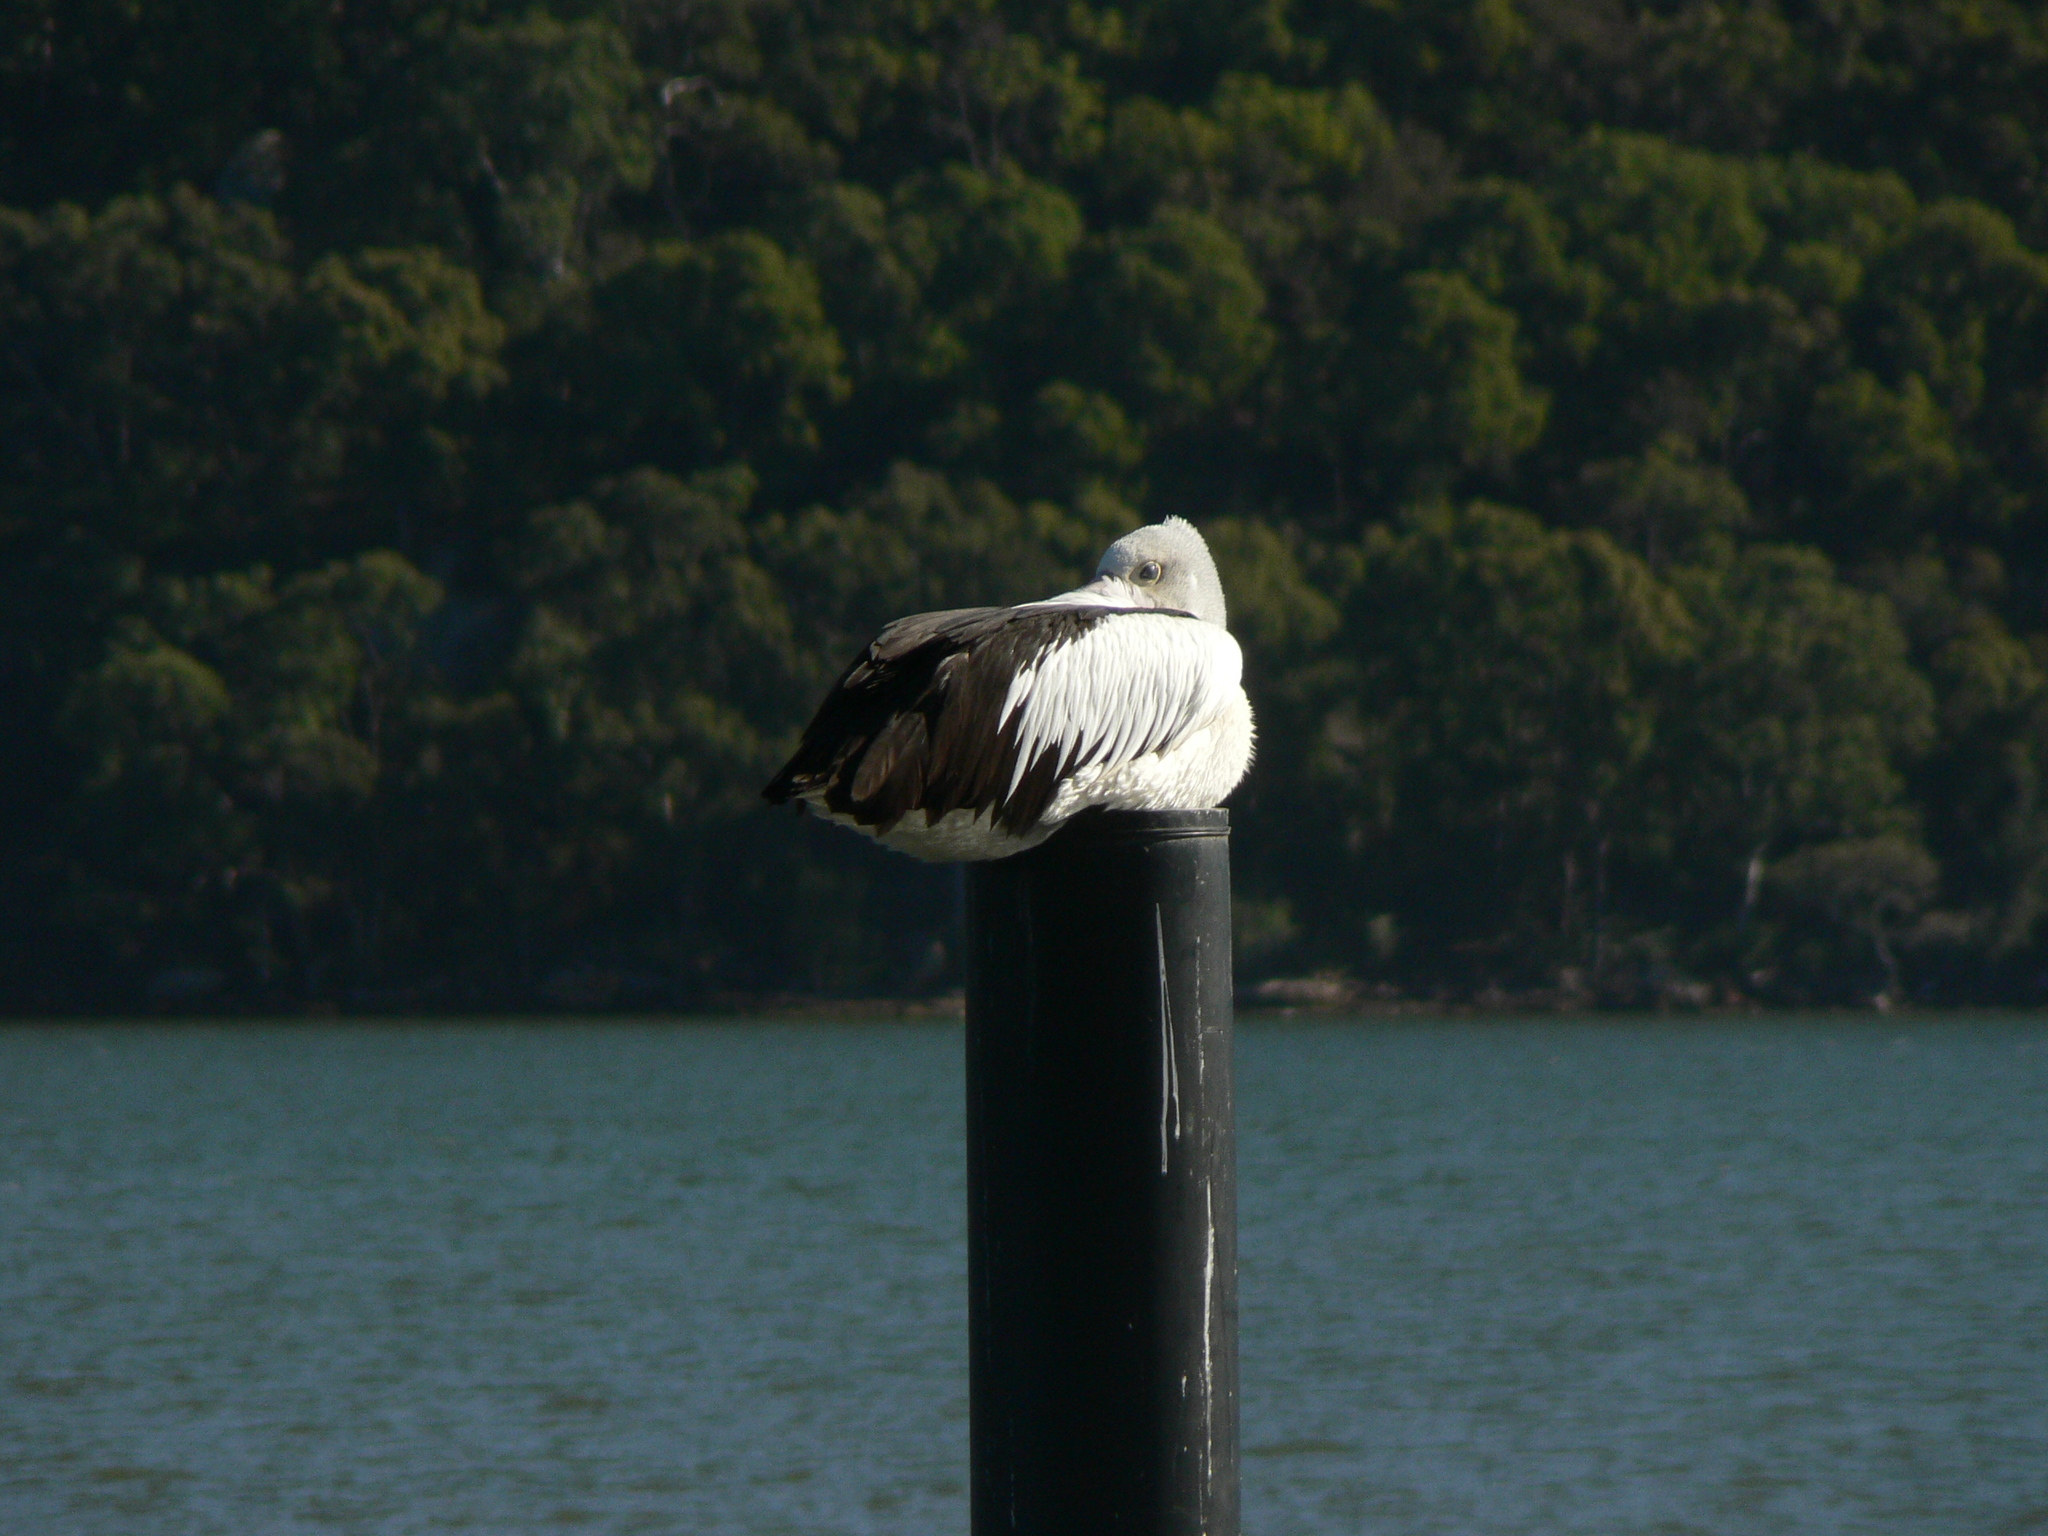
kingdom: Animalia
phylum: Chordata
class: Aves
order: Pelecaniformes
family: Pelecanidae
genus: Pelecanus
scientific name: Pelecanus conspicillatus
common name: Australian pelican
